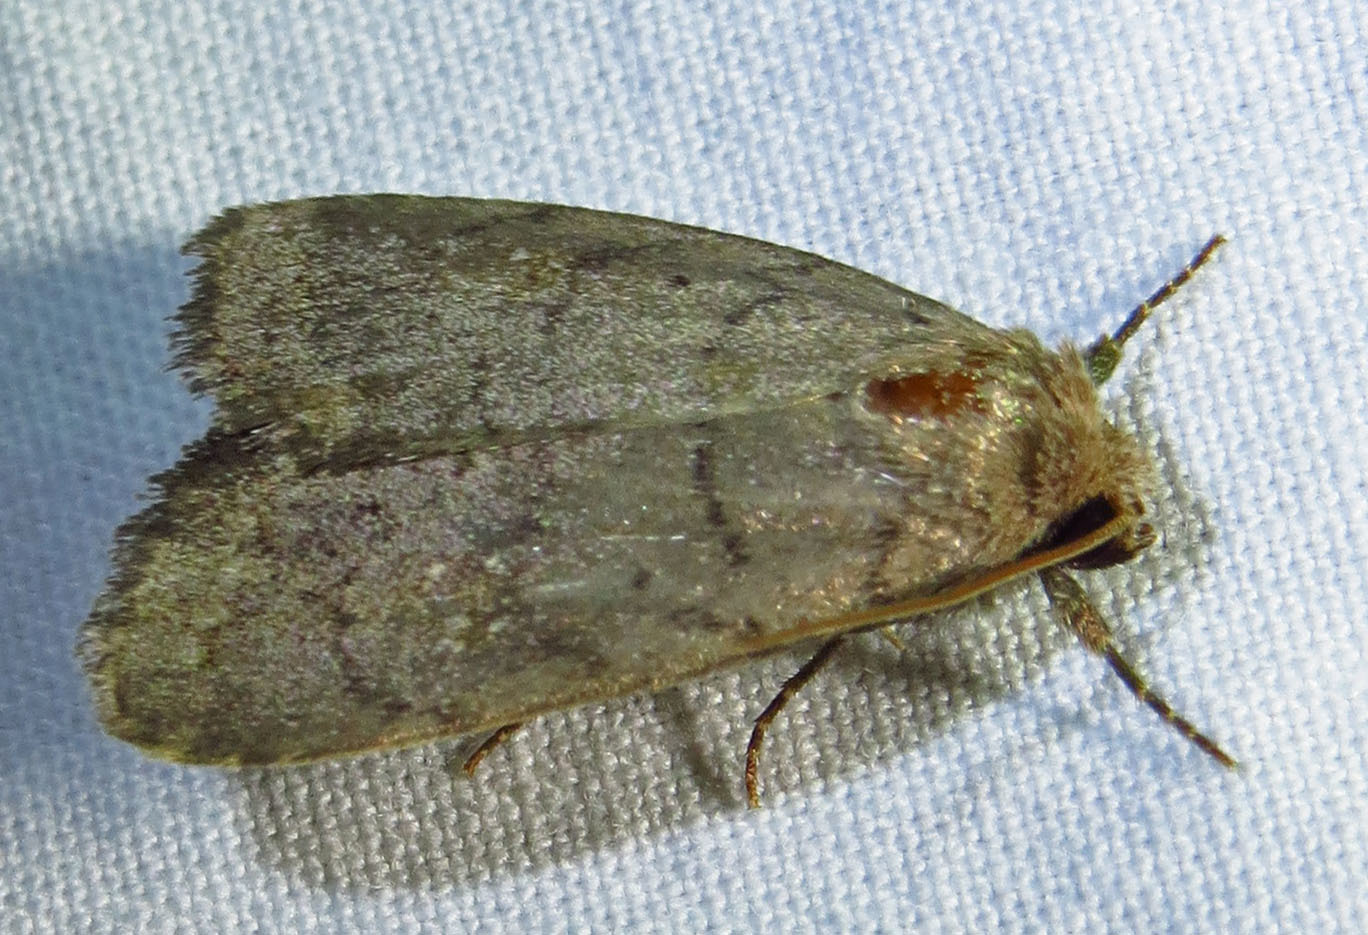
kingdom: Animalia
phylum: Arthropoda
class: Insecta
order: Lepidoptera
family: Noctuidae
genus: Athetis
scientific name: Athetis tarda
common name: Slowpoke moth
